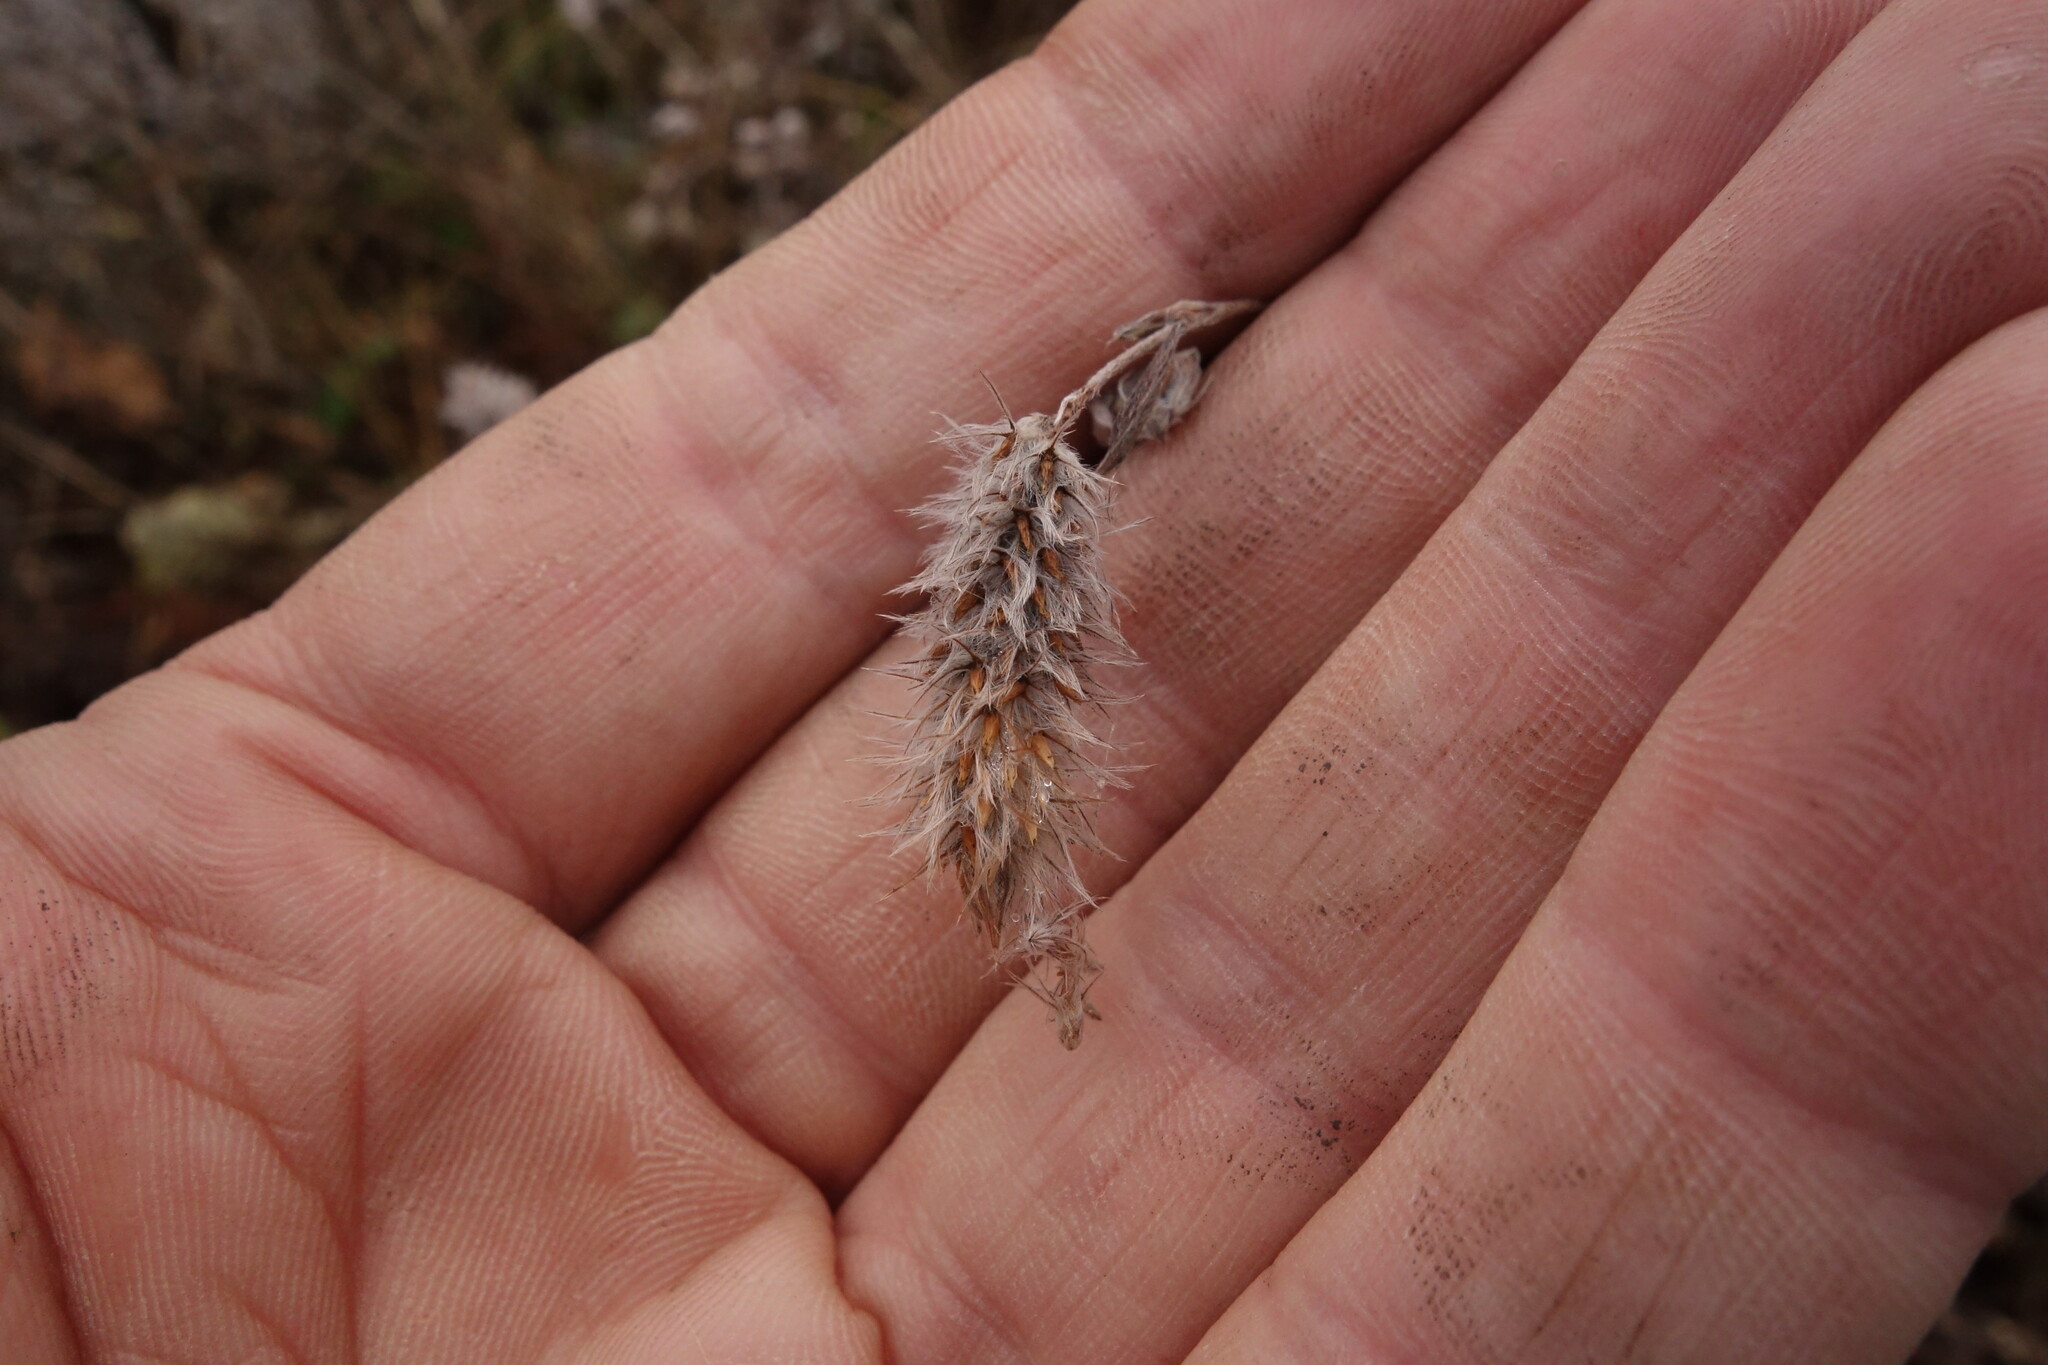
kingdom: Plantae
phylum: Tracheophyta
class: Magnoliopsida
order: Fabales
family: Fabaceae
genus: Trifolium
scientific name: Trifolium arvense
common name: Hare's-foot clover
